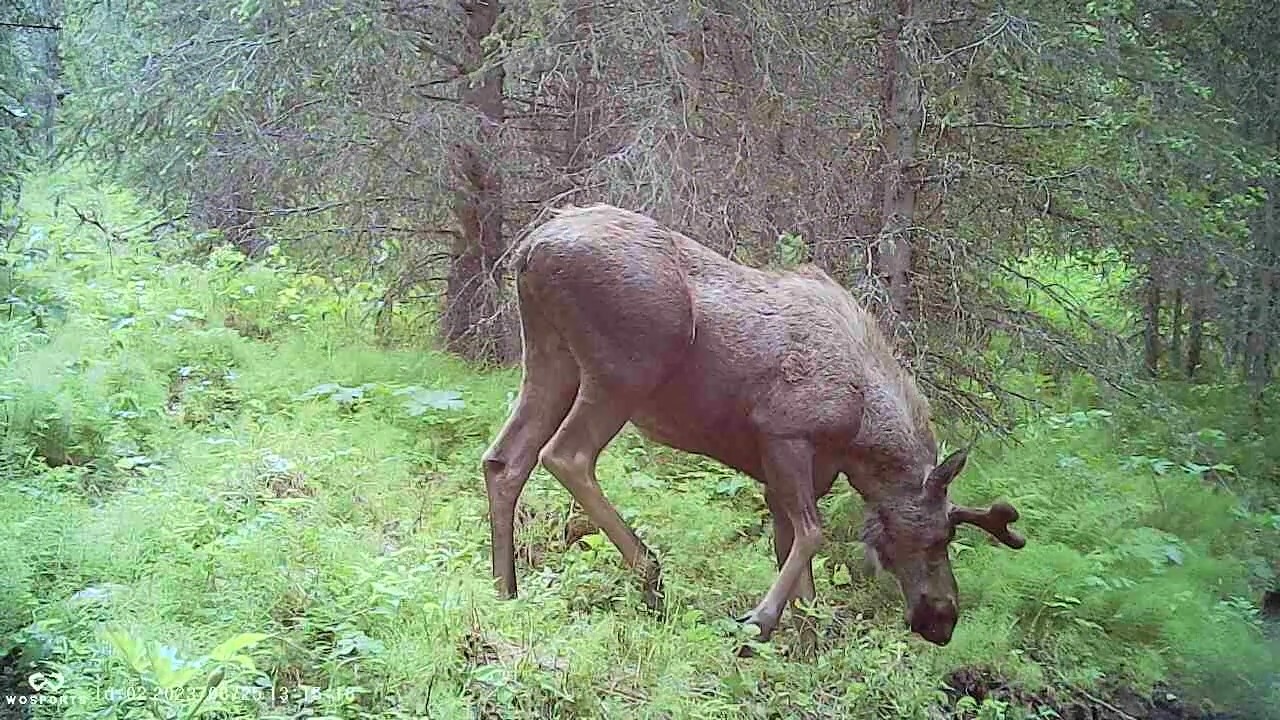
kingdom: Animalia
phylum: Chordata
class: Mammalia
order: Artiodactyla
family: Cervidae
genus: Alces
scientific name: Alces alces
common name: Moose
